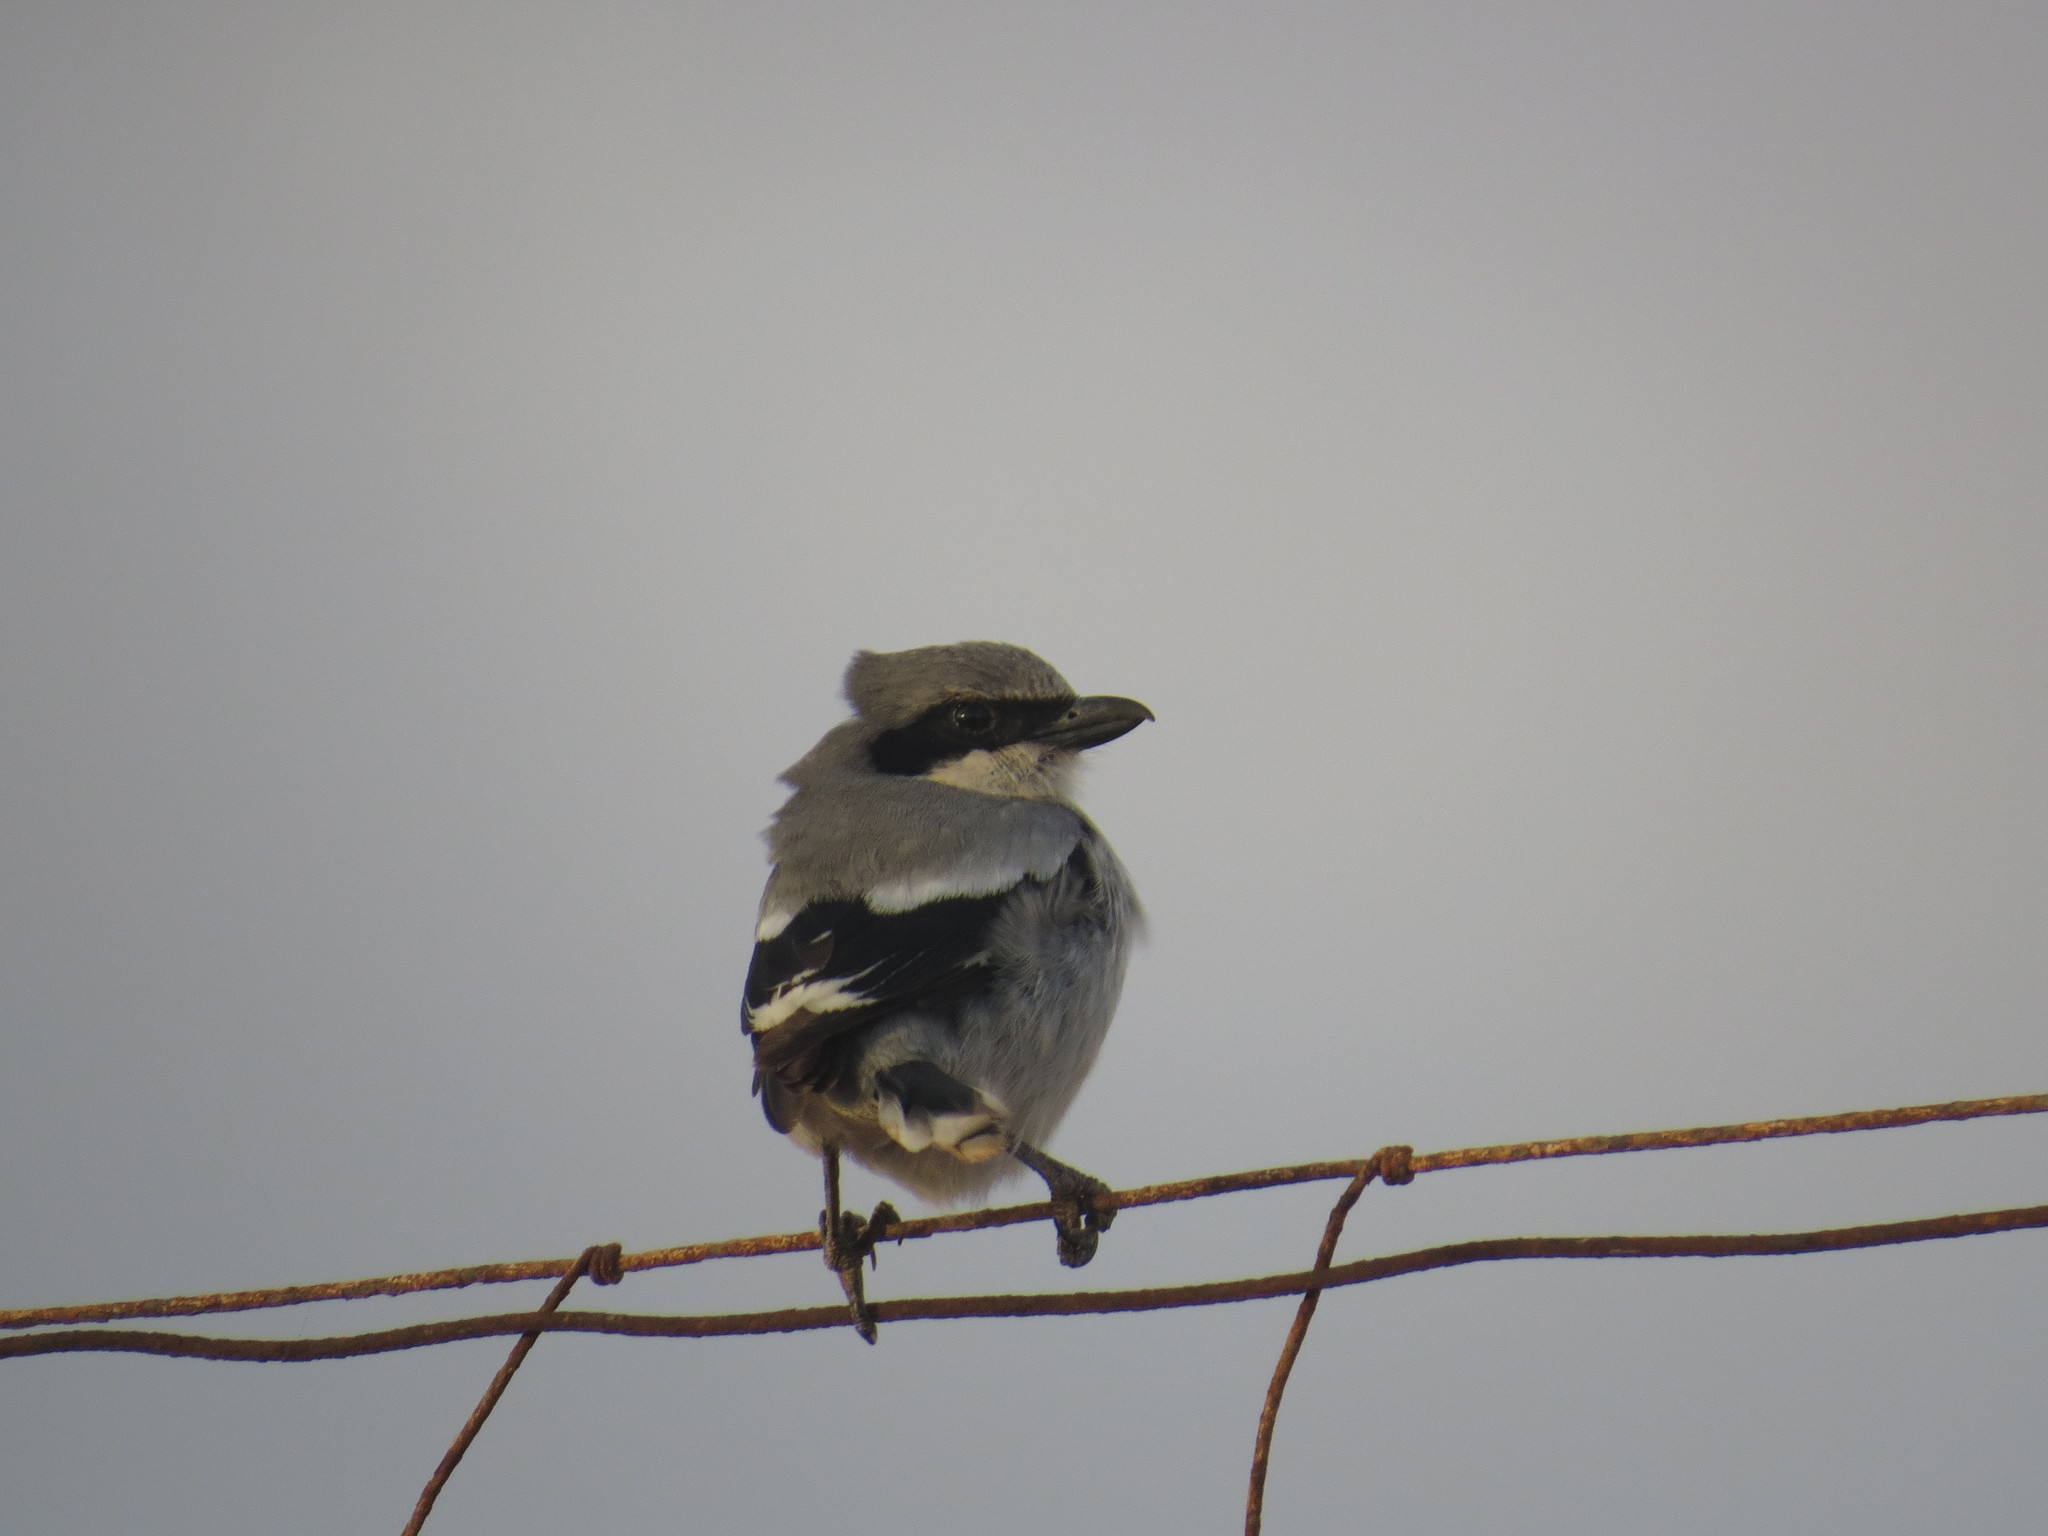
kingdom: Animalia
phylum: Chordata
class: Aves
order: Passeriformes
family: Laniidae
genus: Lanius
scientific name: Lanius excubitor
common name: Great grey shrike
